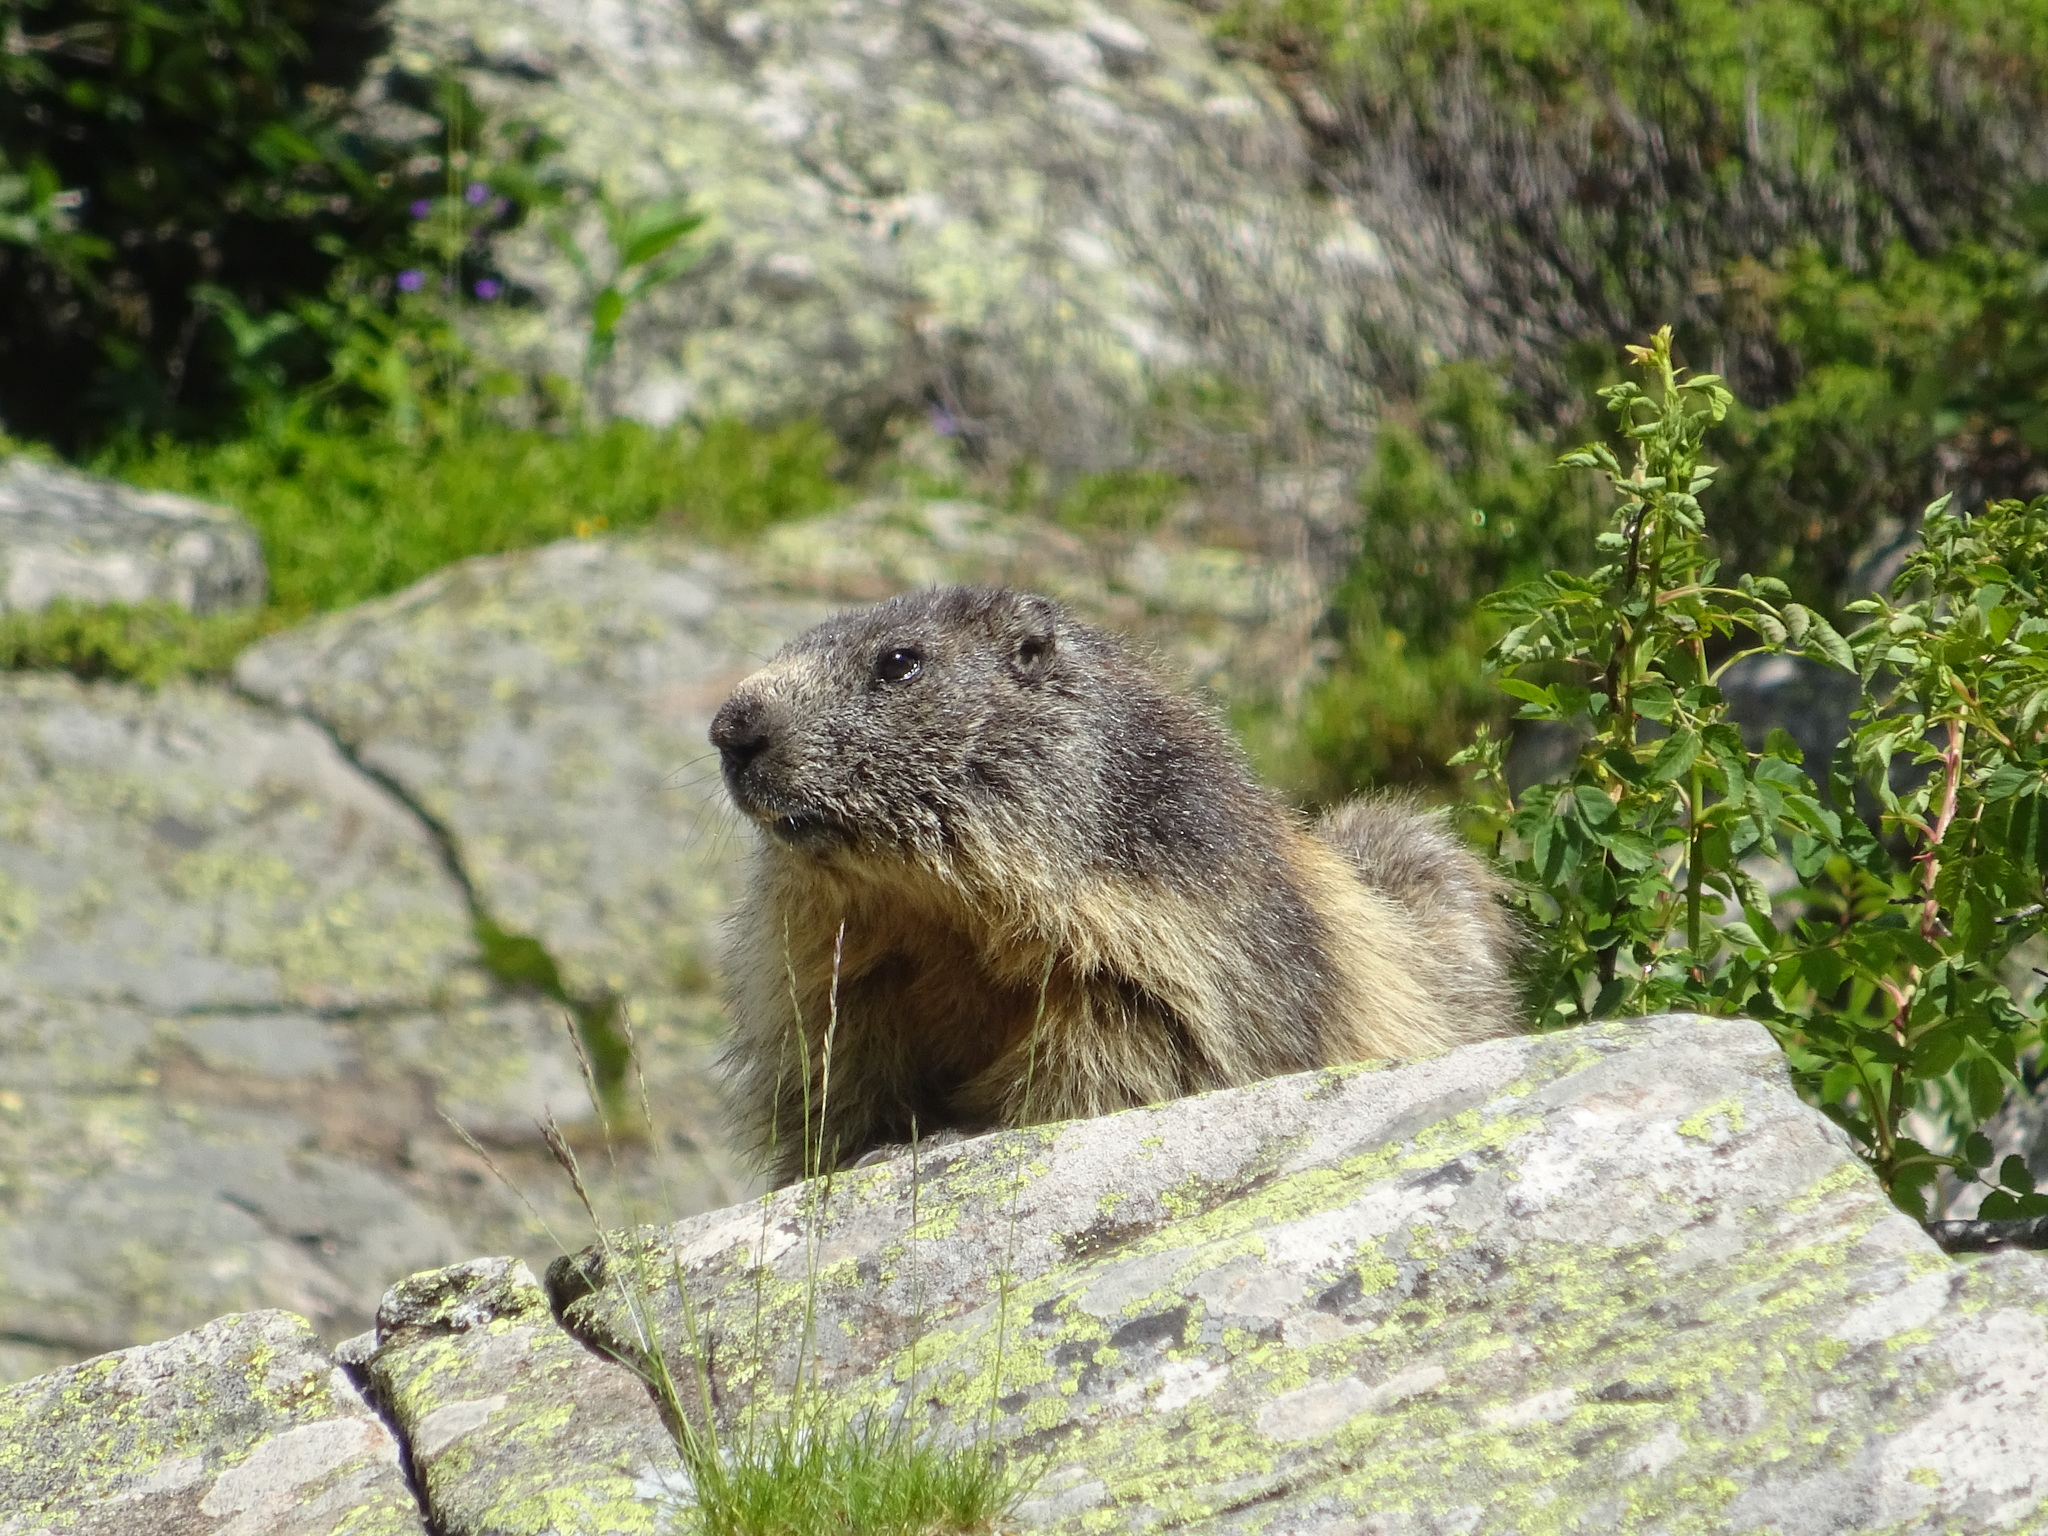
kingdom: Animalia
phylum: Chordata
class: Mammalia
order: Rodentia
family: Sciuridae
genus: Marmota
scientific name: Marmota marmota
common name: Alpine marmot
